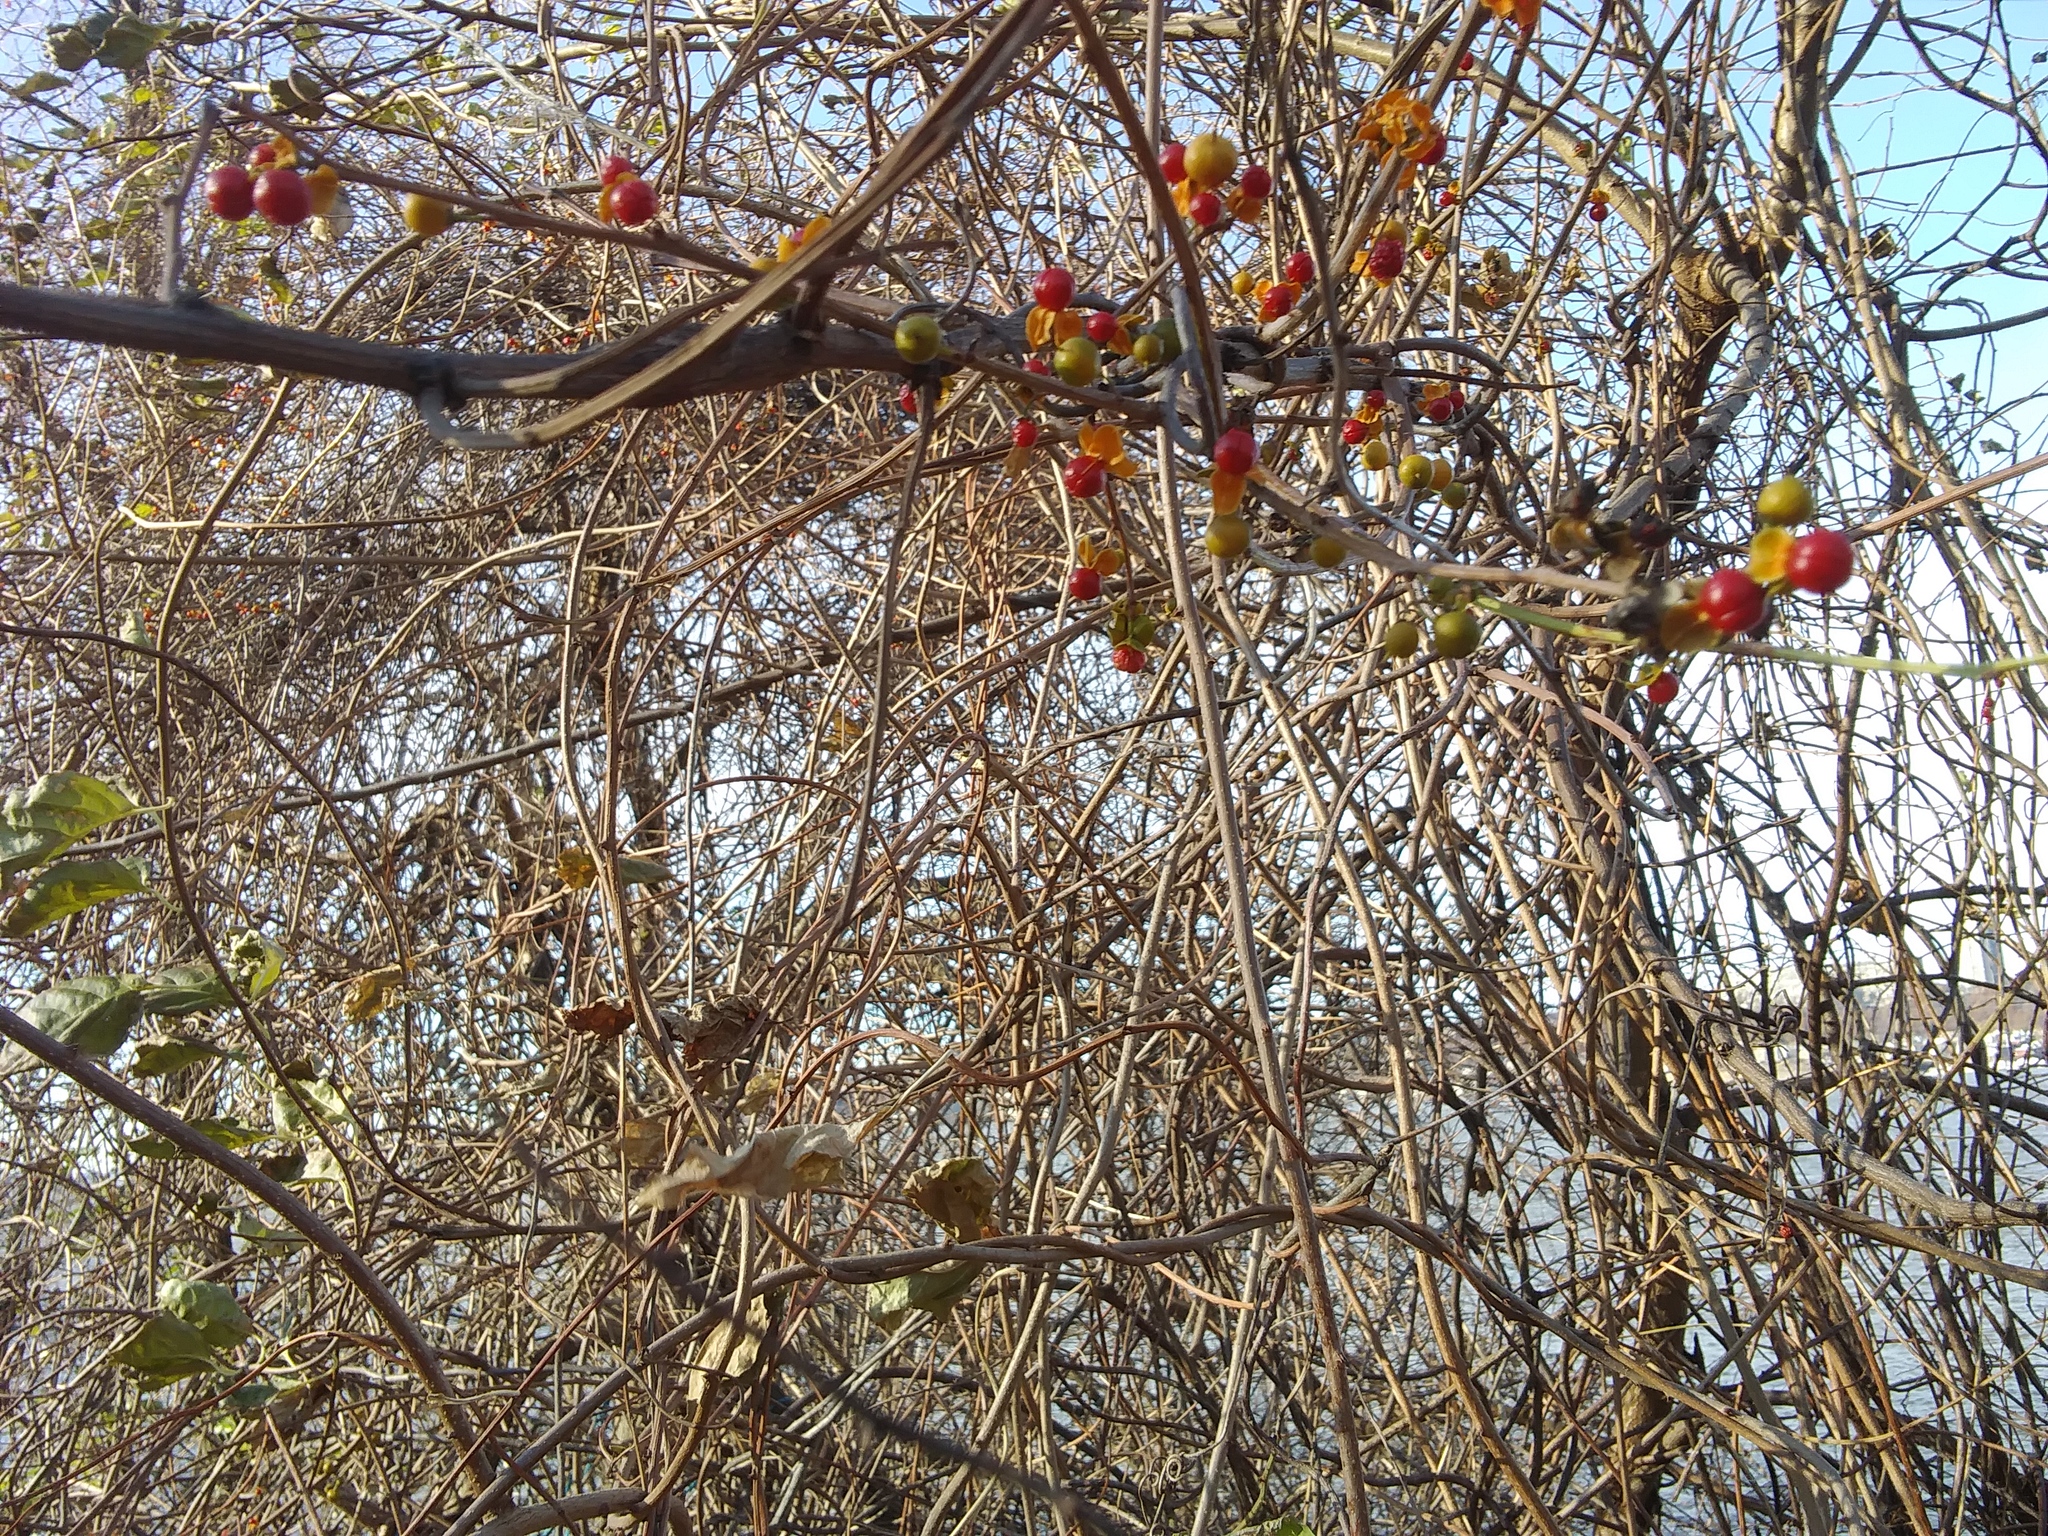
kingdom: Plantae
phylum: Tracheophyta
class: Magnoliopsida
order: Celastrales
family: Celastraceae
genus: Celastrus
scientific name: Celastrus orbiculatus
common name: Oriental bittersweet
